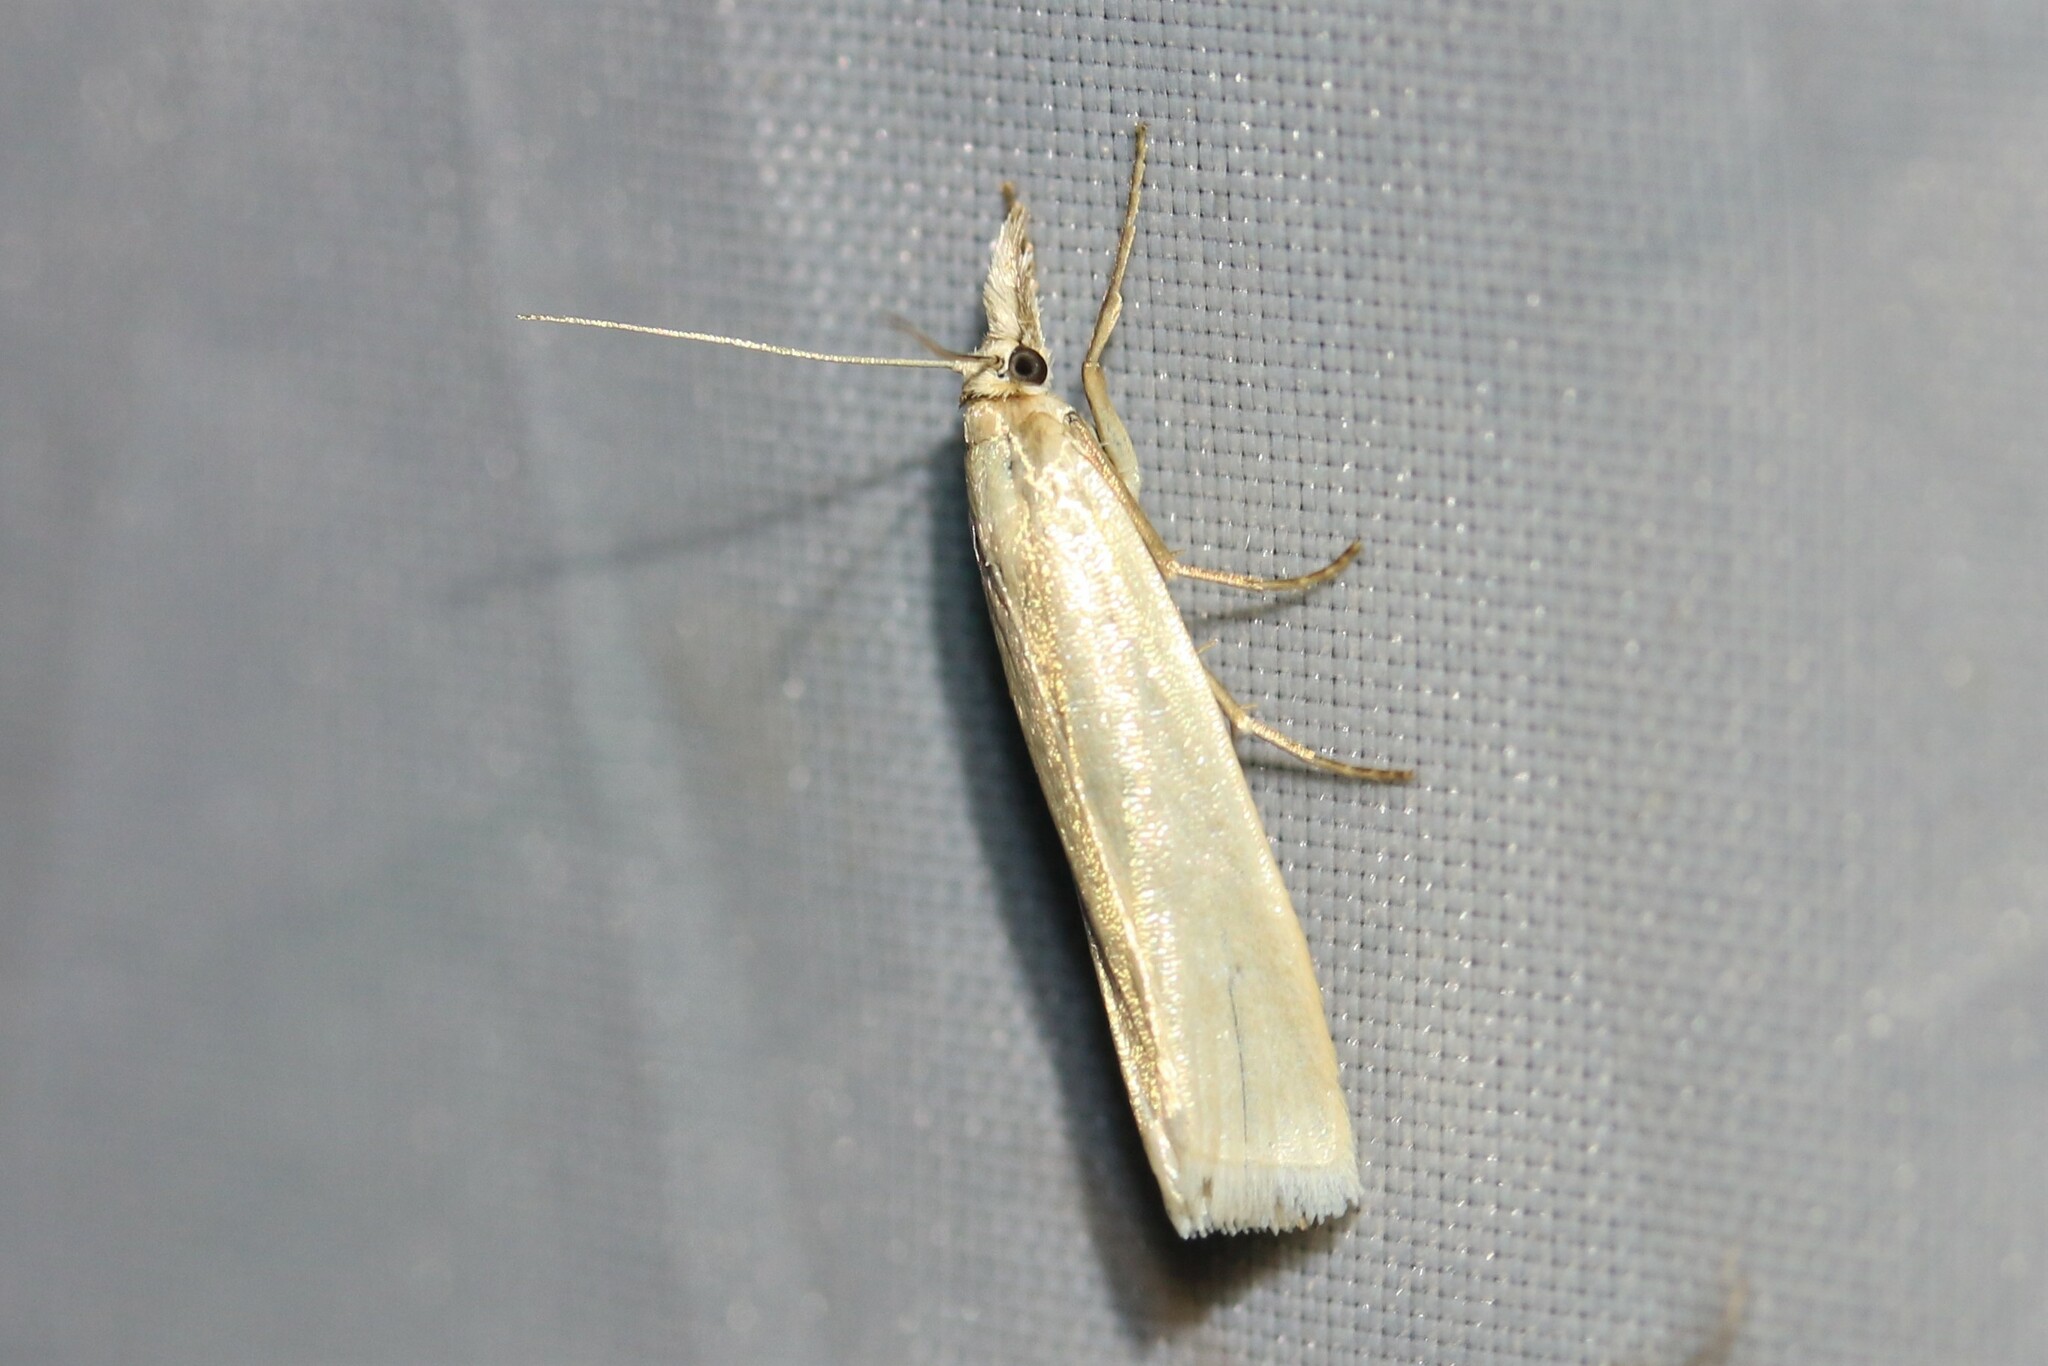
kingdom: Animalia
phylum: Arthropoda
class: Insecta
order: Lepidoptera
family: Crambidae
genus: Crambus
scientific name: Crambus perlellus
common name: Yellow satin veneer
